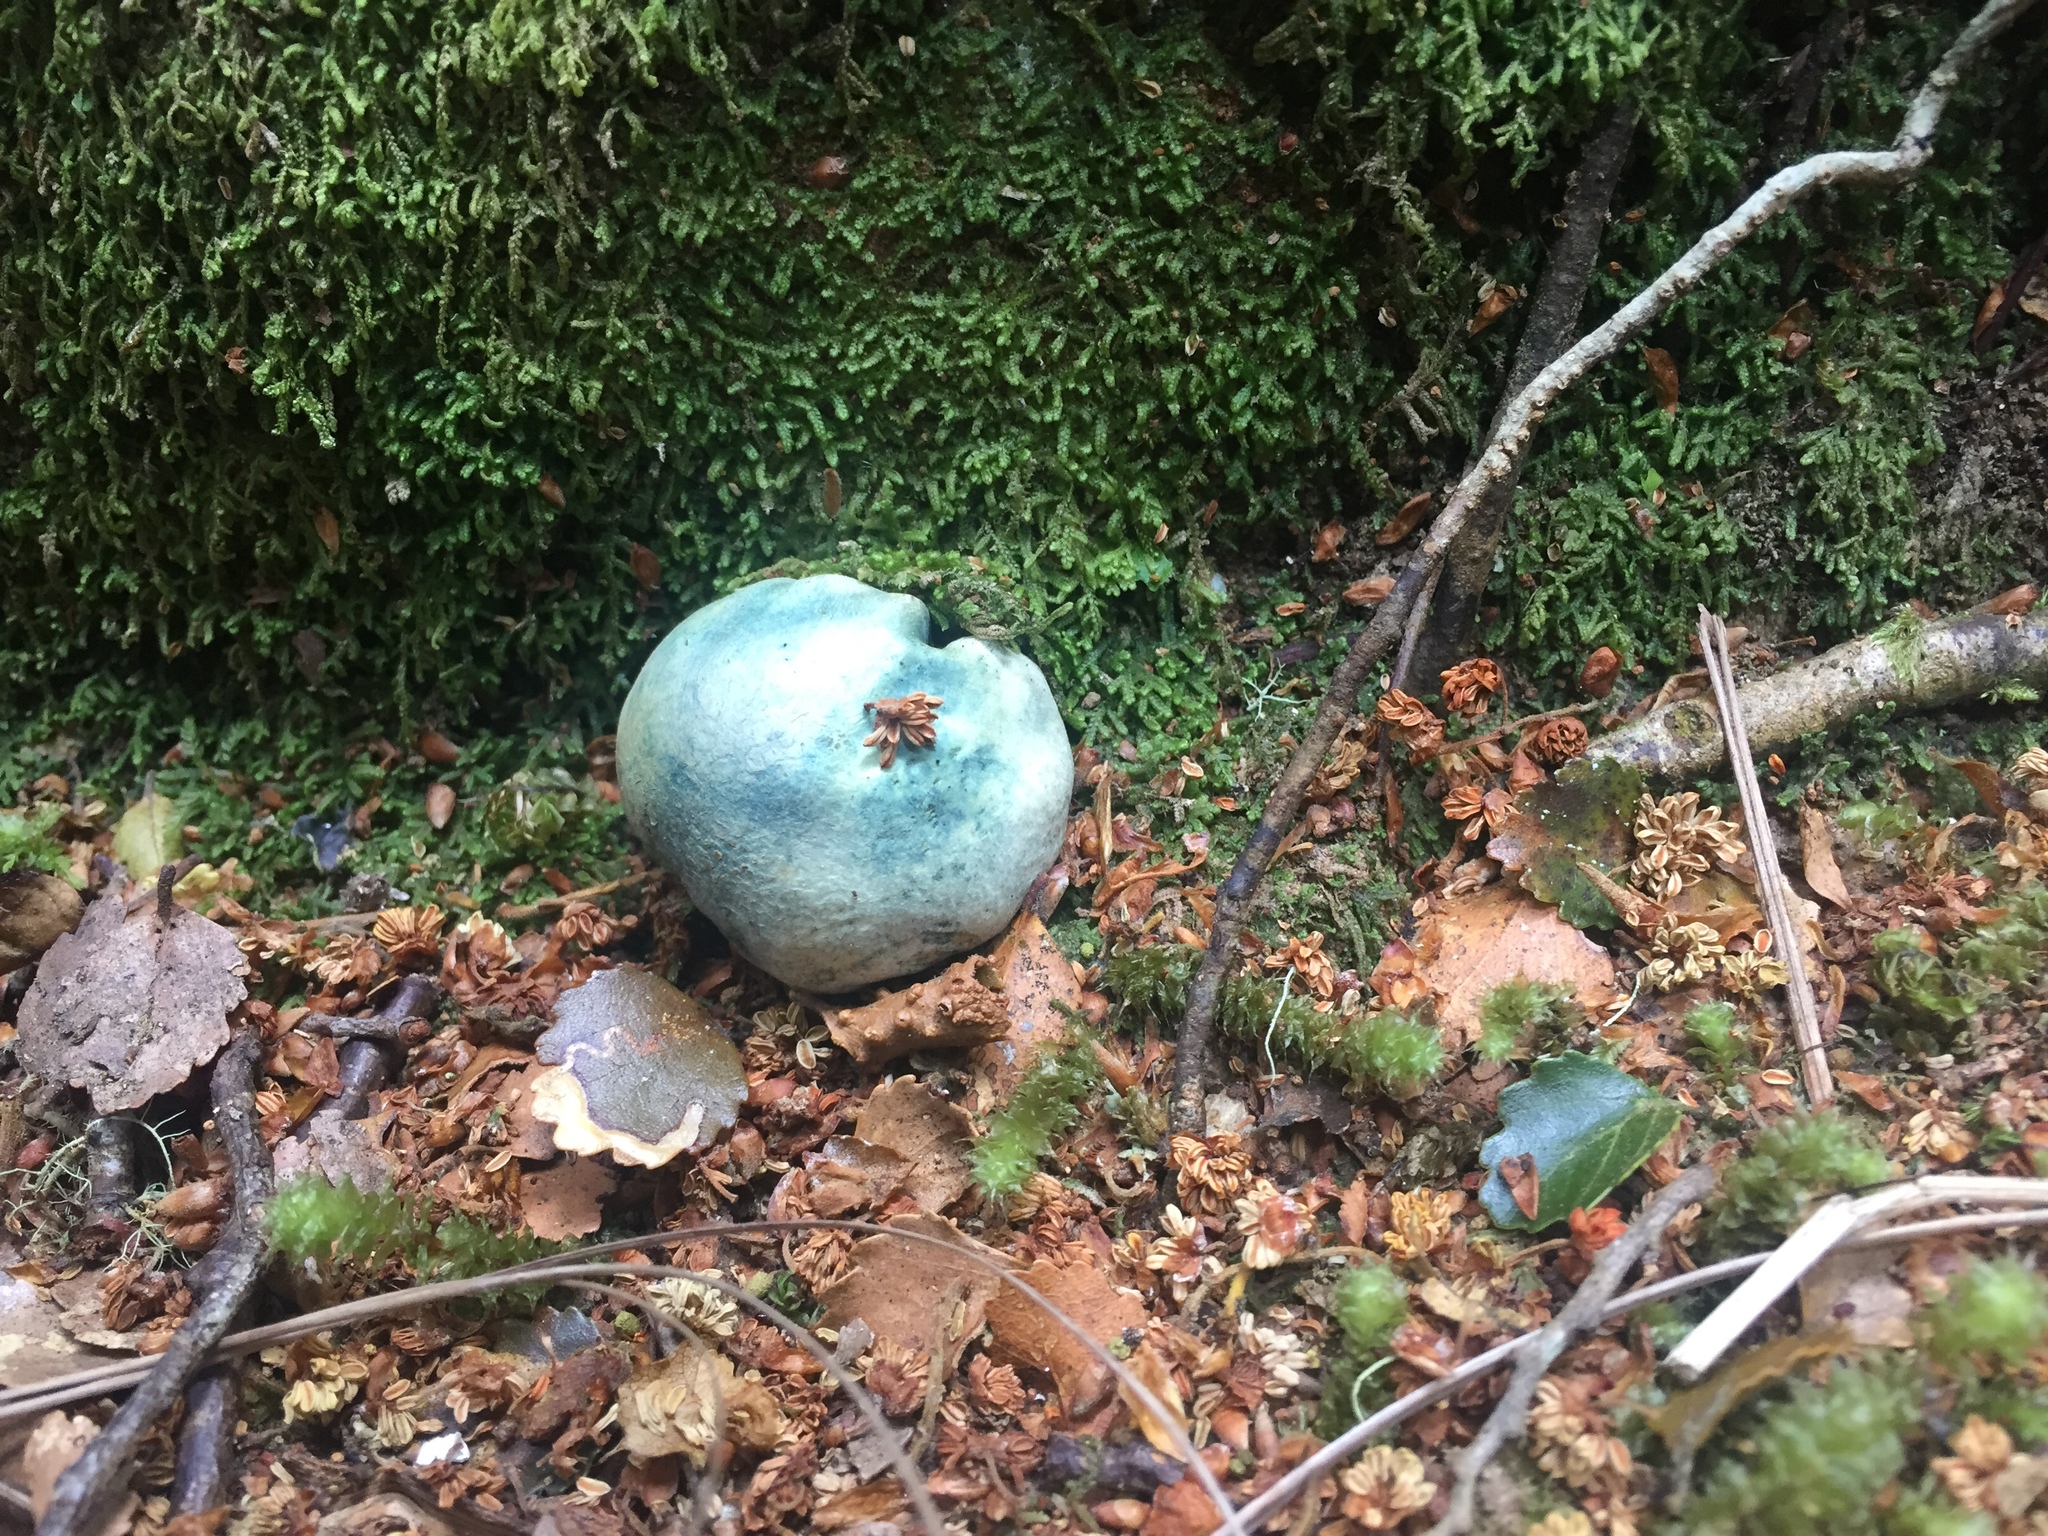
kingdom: Fungi
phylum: Basidiomycota
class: Agaricomycetes
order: Boletales
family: Boletaceae
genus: Leccinum
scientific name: Leccinum pachyderme
